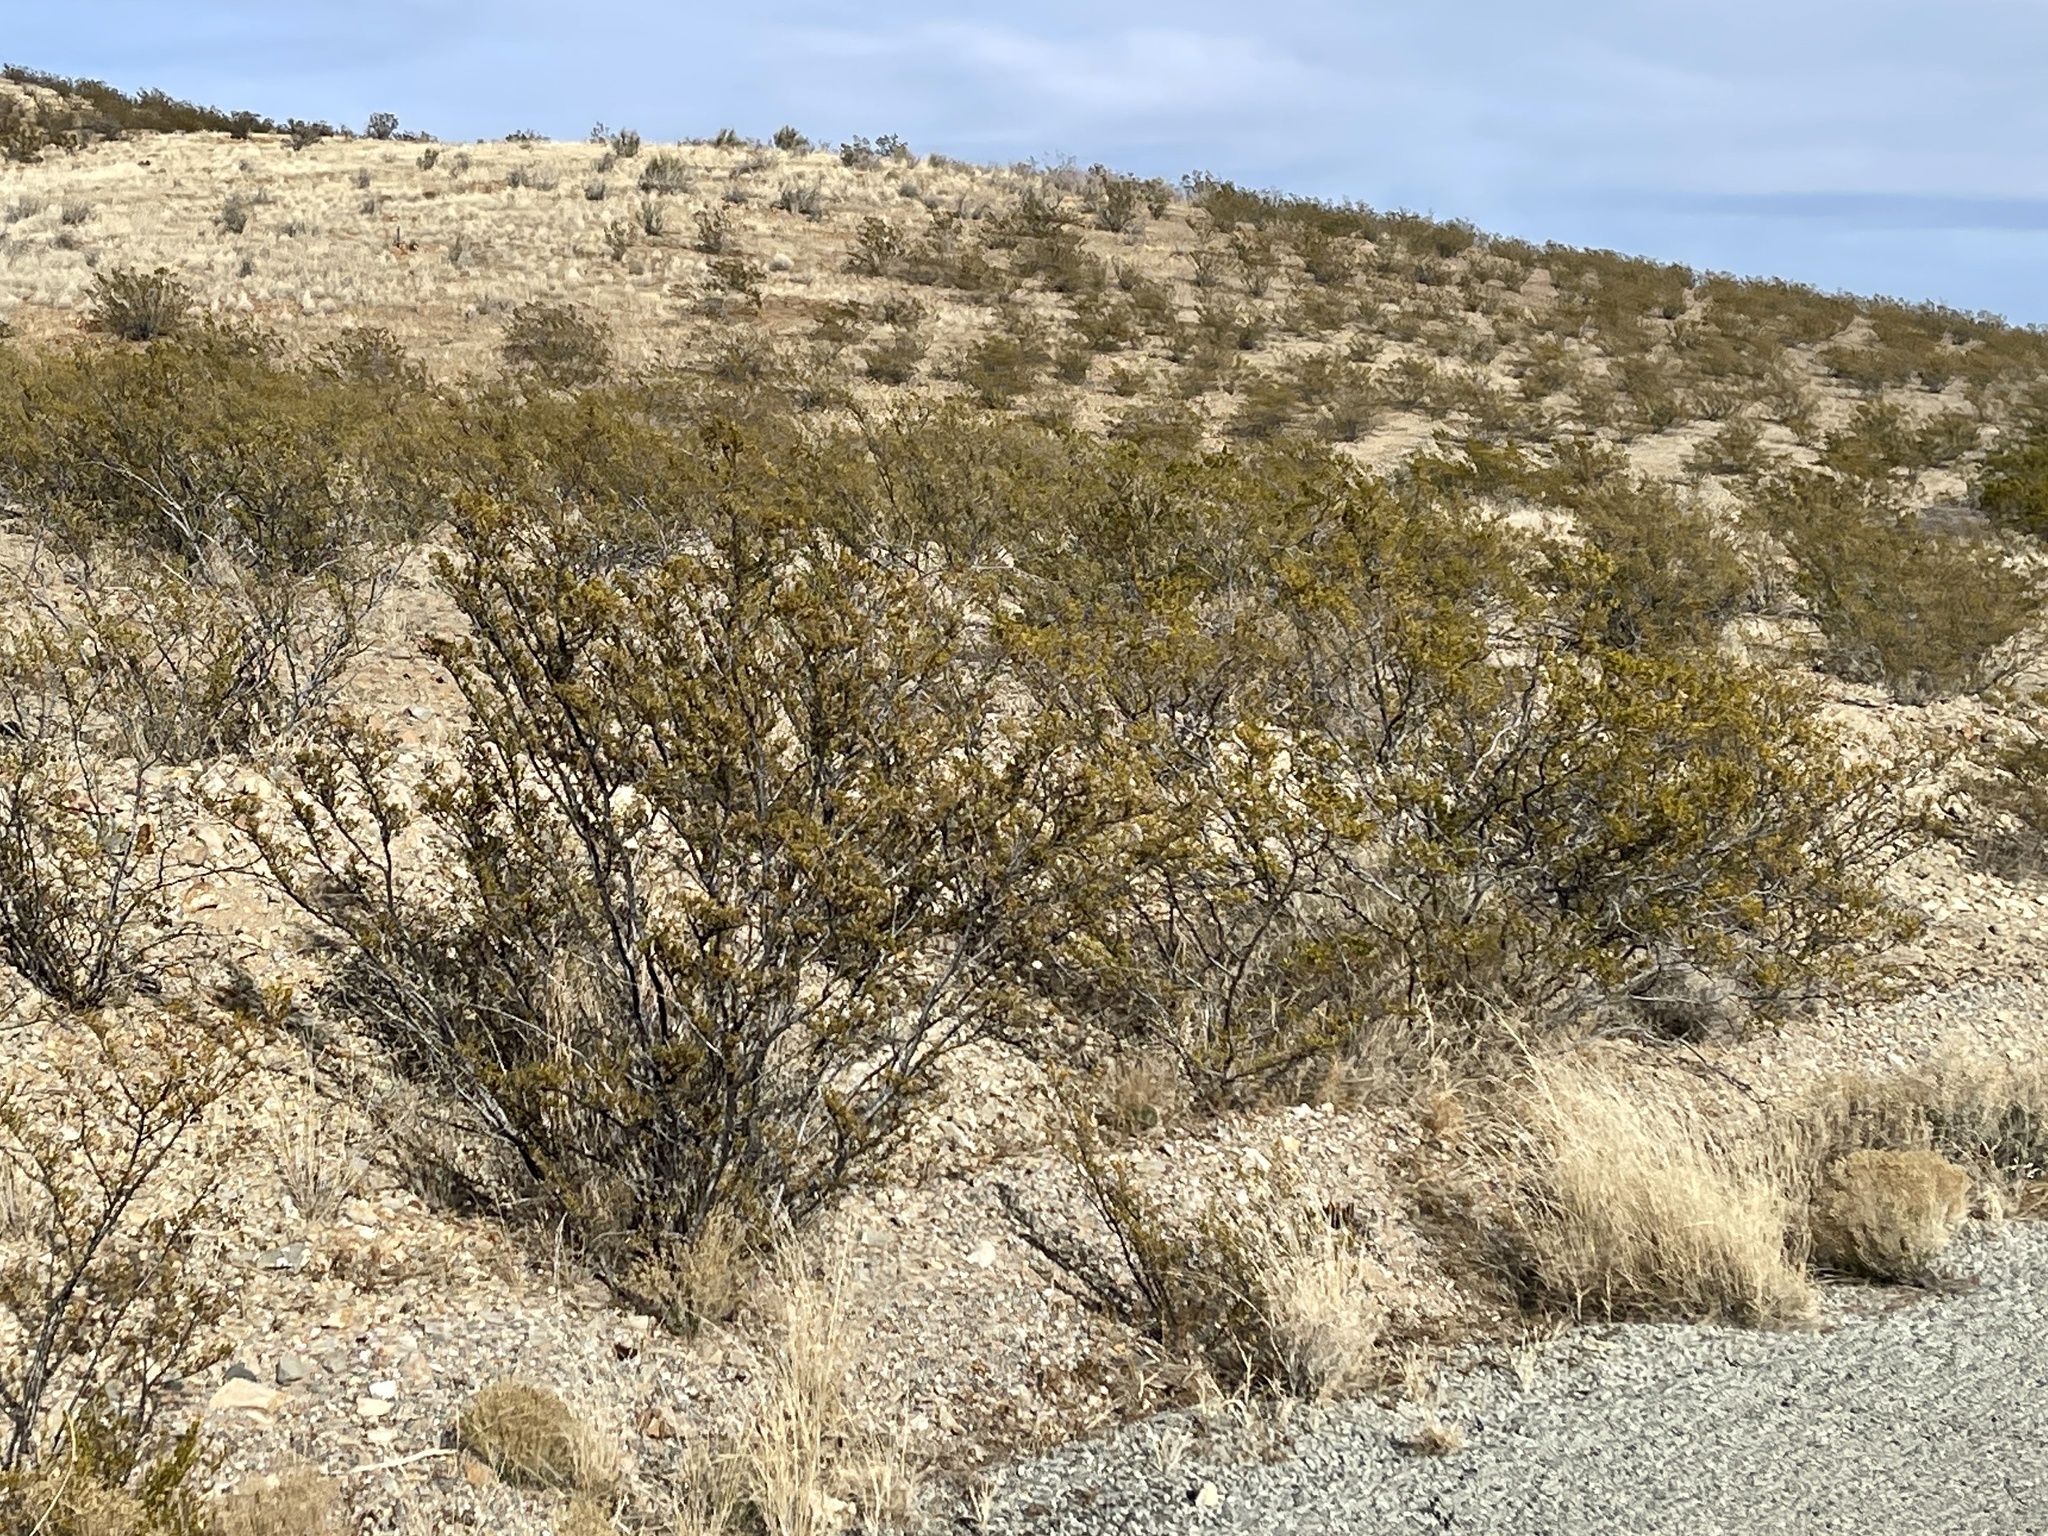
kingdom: Plantae
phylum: Tracheophyta
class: Magnoliopsida
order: Zygophyllales
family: Zygophyllaceae
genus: Larrea
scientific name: Larrea tridentata
